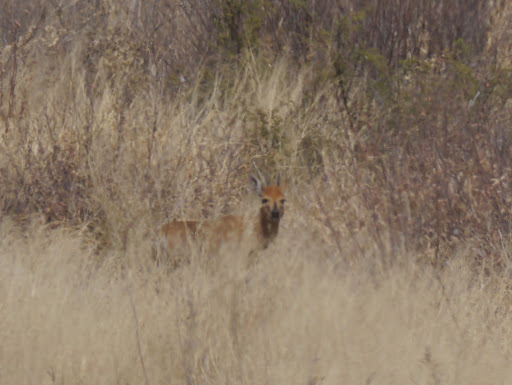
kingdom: Animalia
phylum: Chordata
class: Mammalia
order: Artiodactyla
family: Bovidae
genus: Sylvicapra
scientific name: Sylvicapra grimmia
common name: Bush duiker
